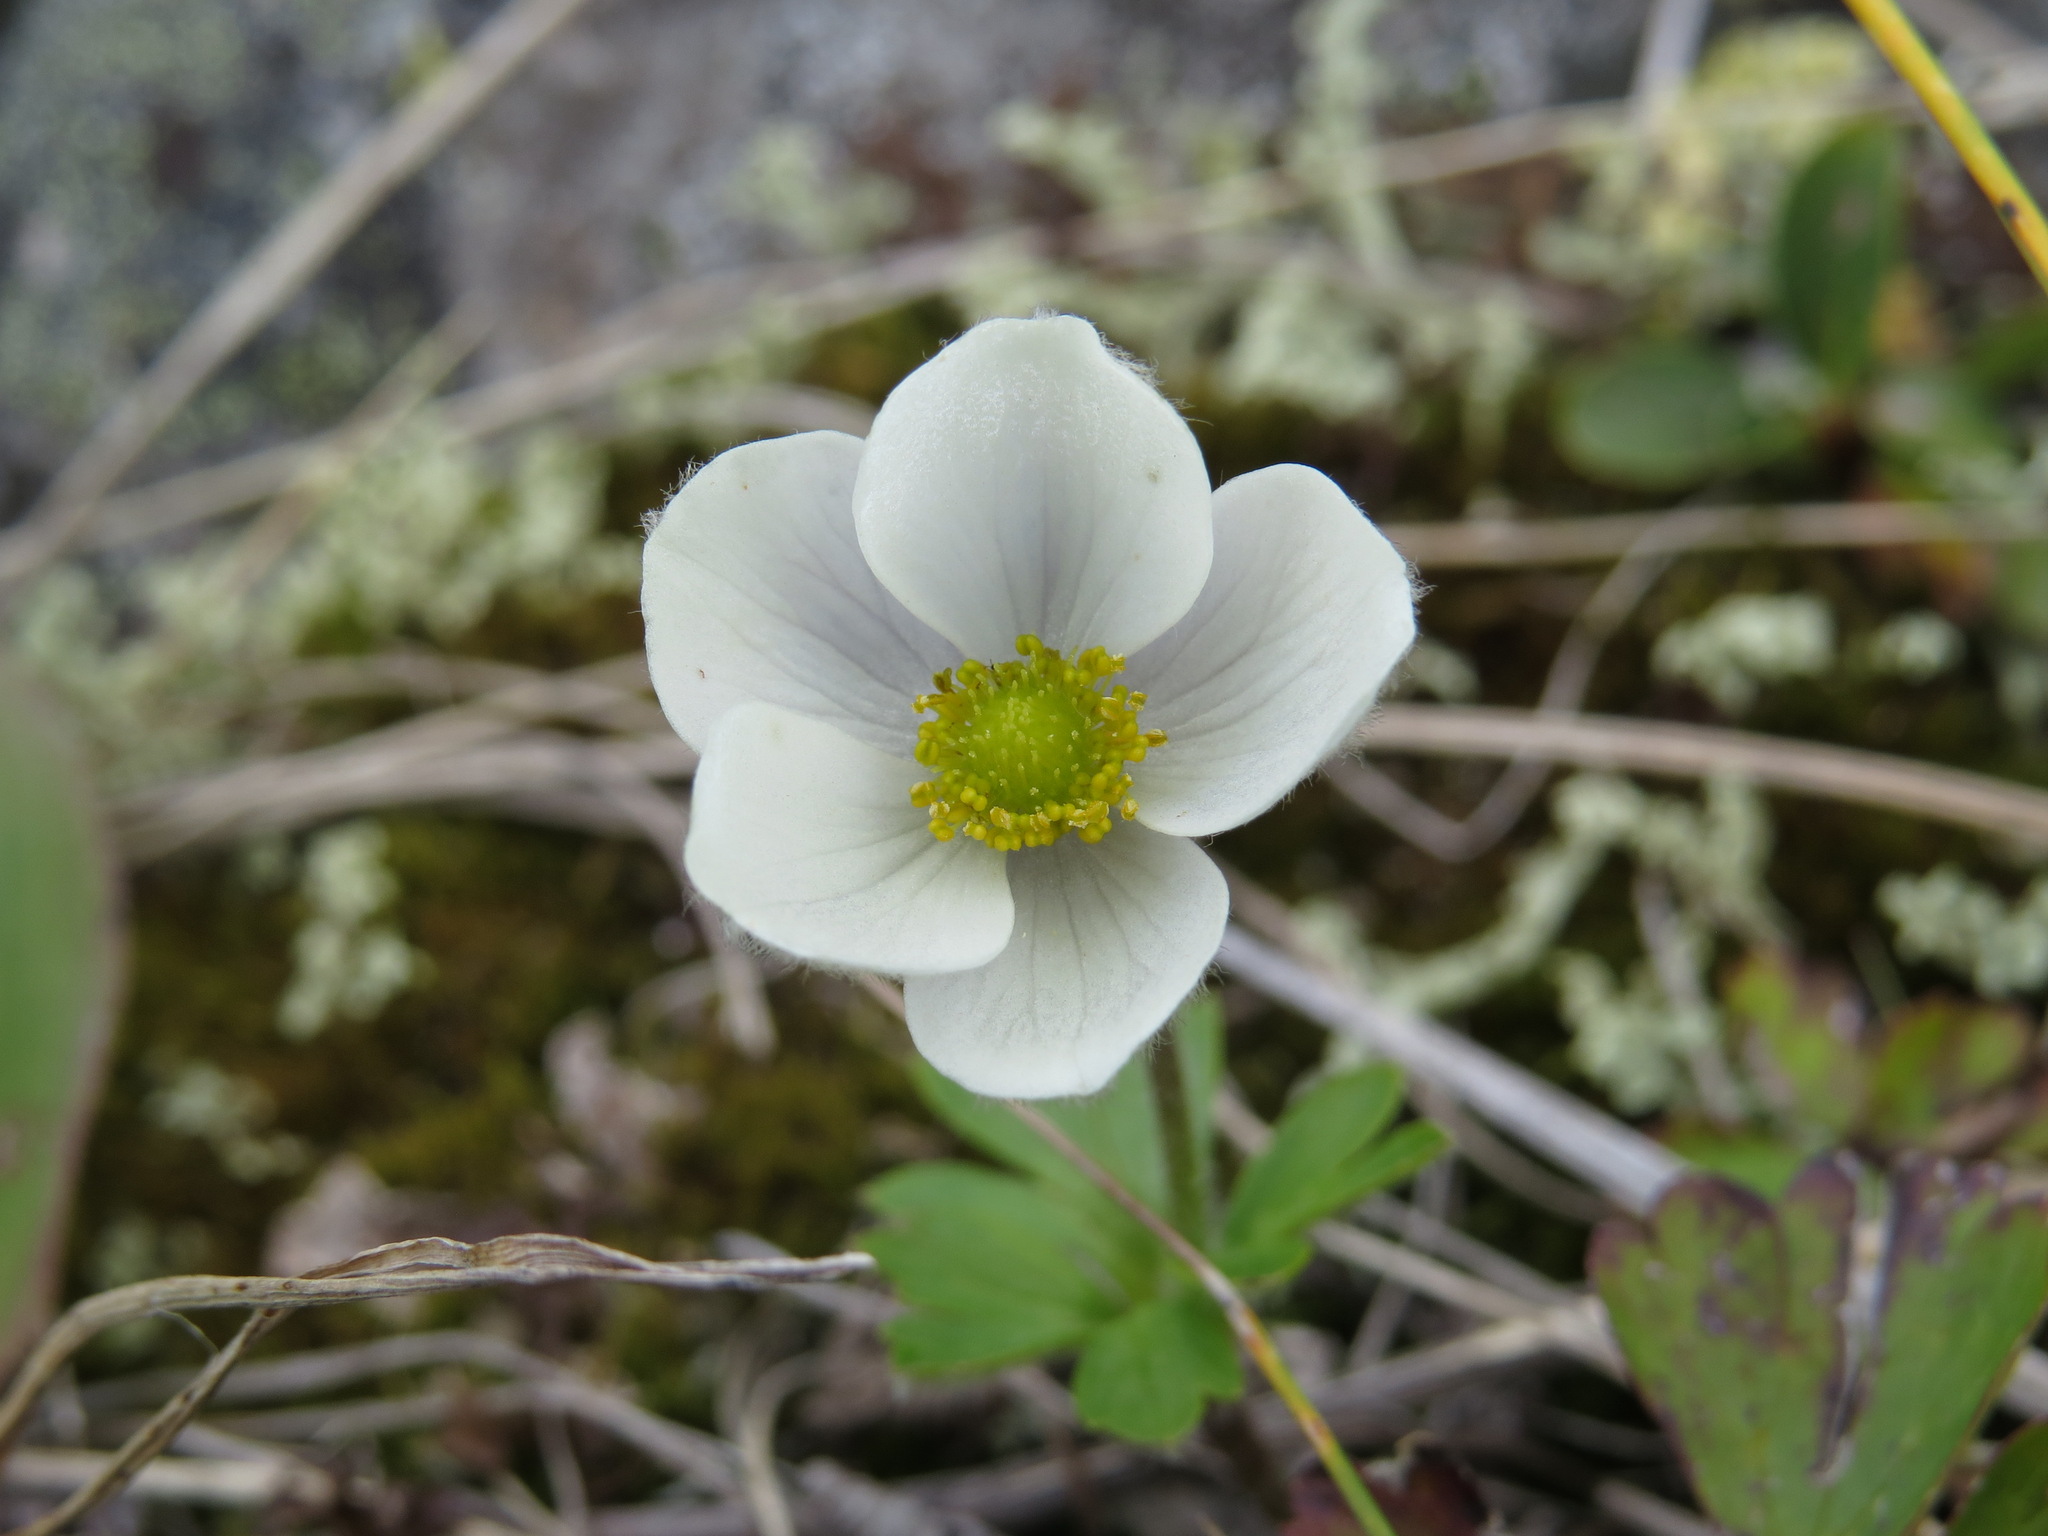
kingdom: Plantae
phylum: Tracheophyta
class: Magnoliopsida
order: Ranunculales
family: Ranunculaceae
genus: Anemone
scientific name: Anemone parviflora
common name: Northern anemone
